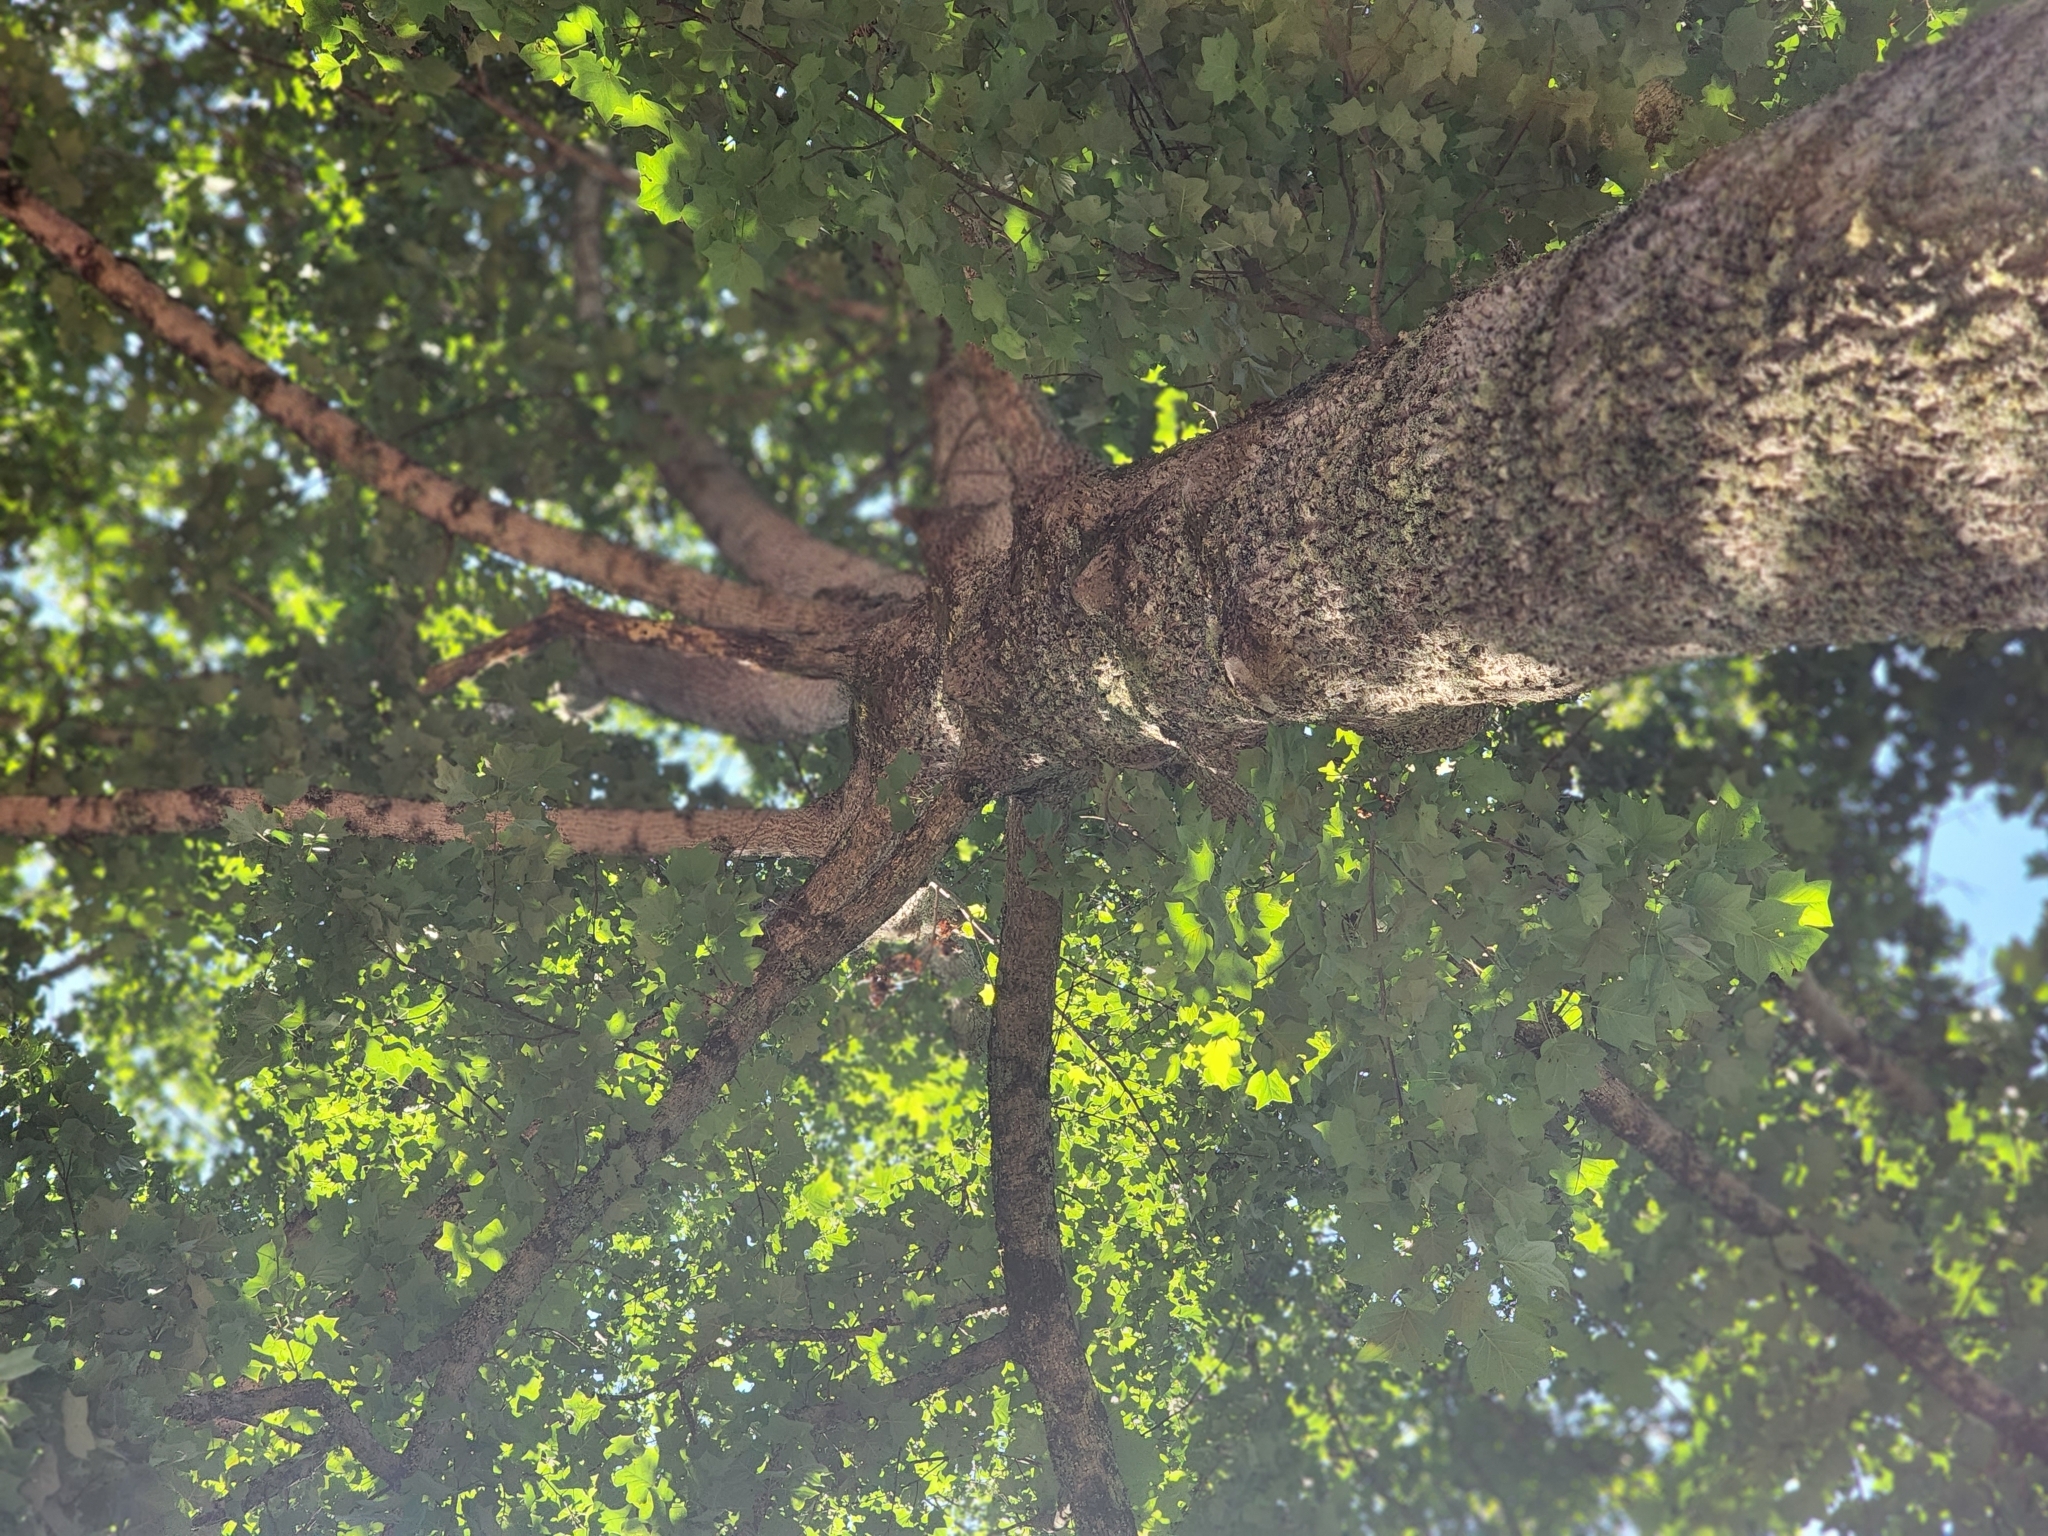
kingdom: Plantae
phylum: Tracheophyta
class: Magnoliopsida
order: Magnoliales
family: Magnoliaceae
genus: Liriodendron
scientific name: Liriodendron tulipifera
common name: Tulip tree
